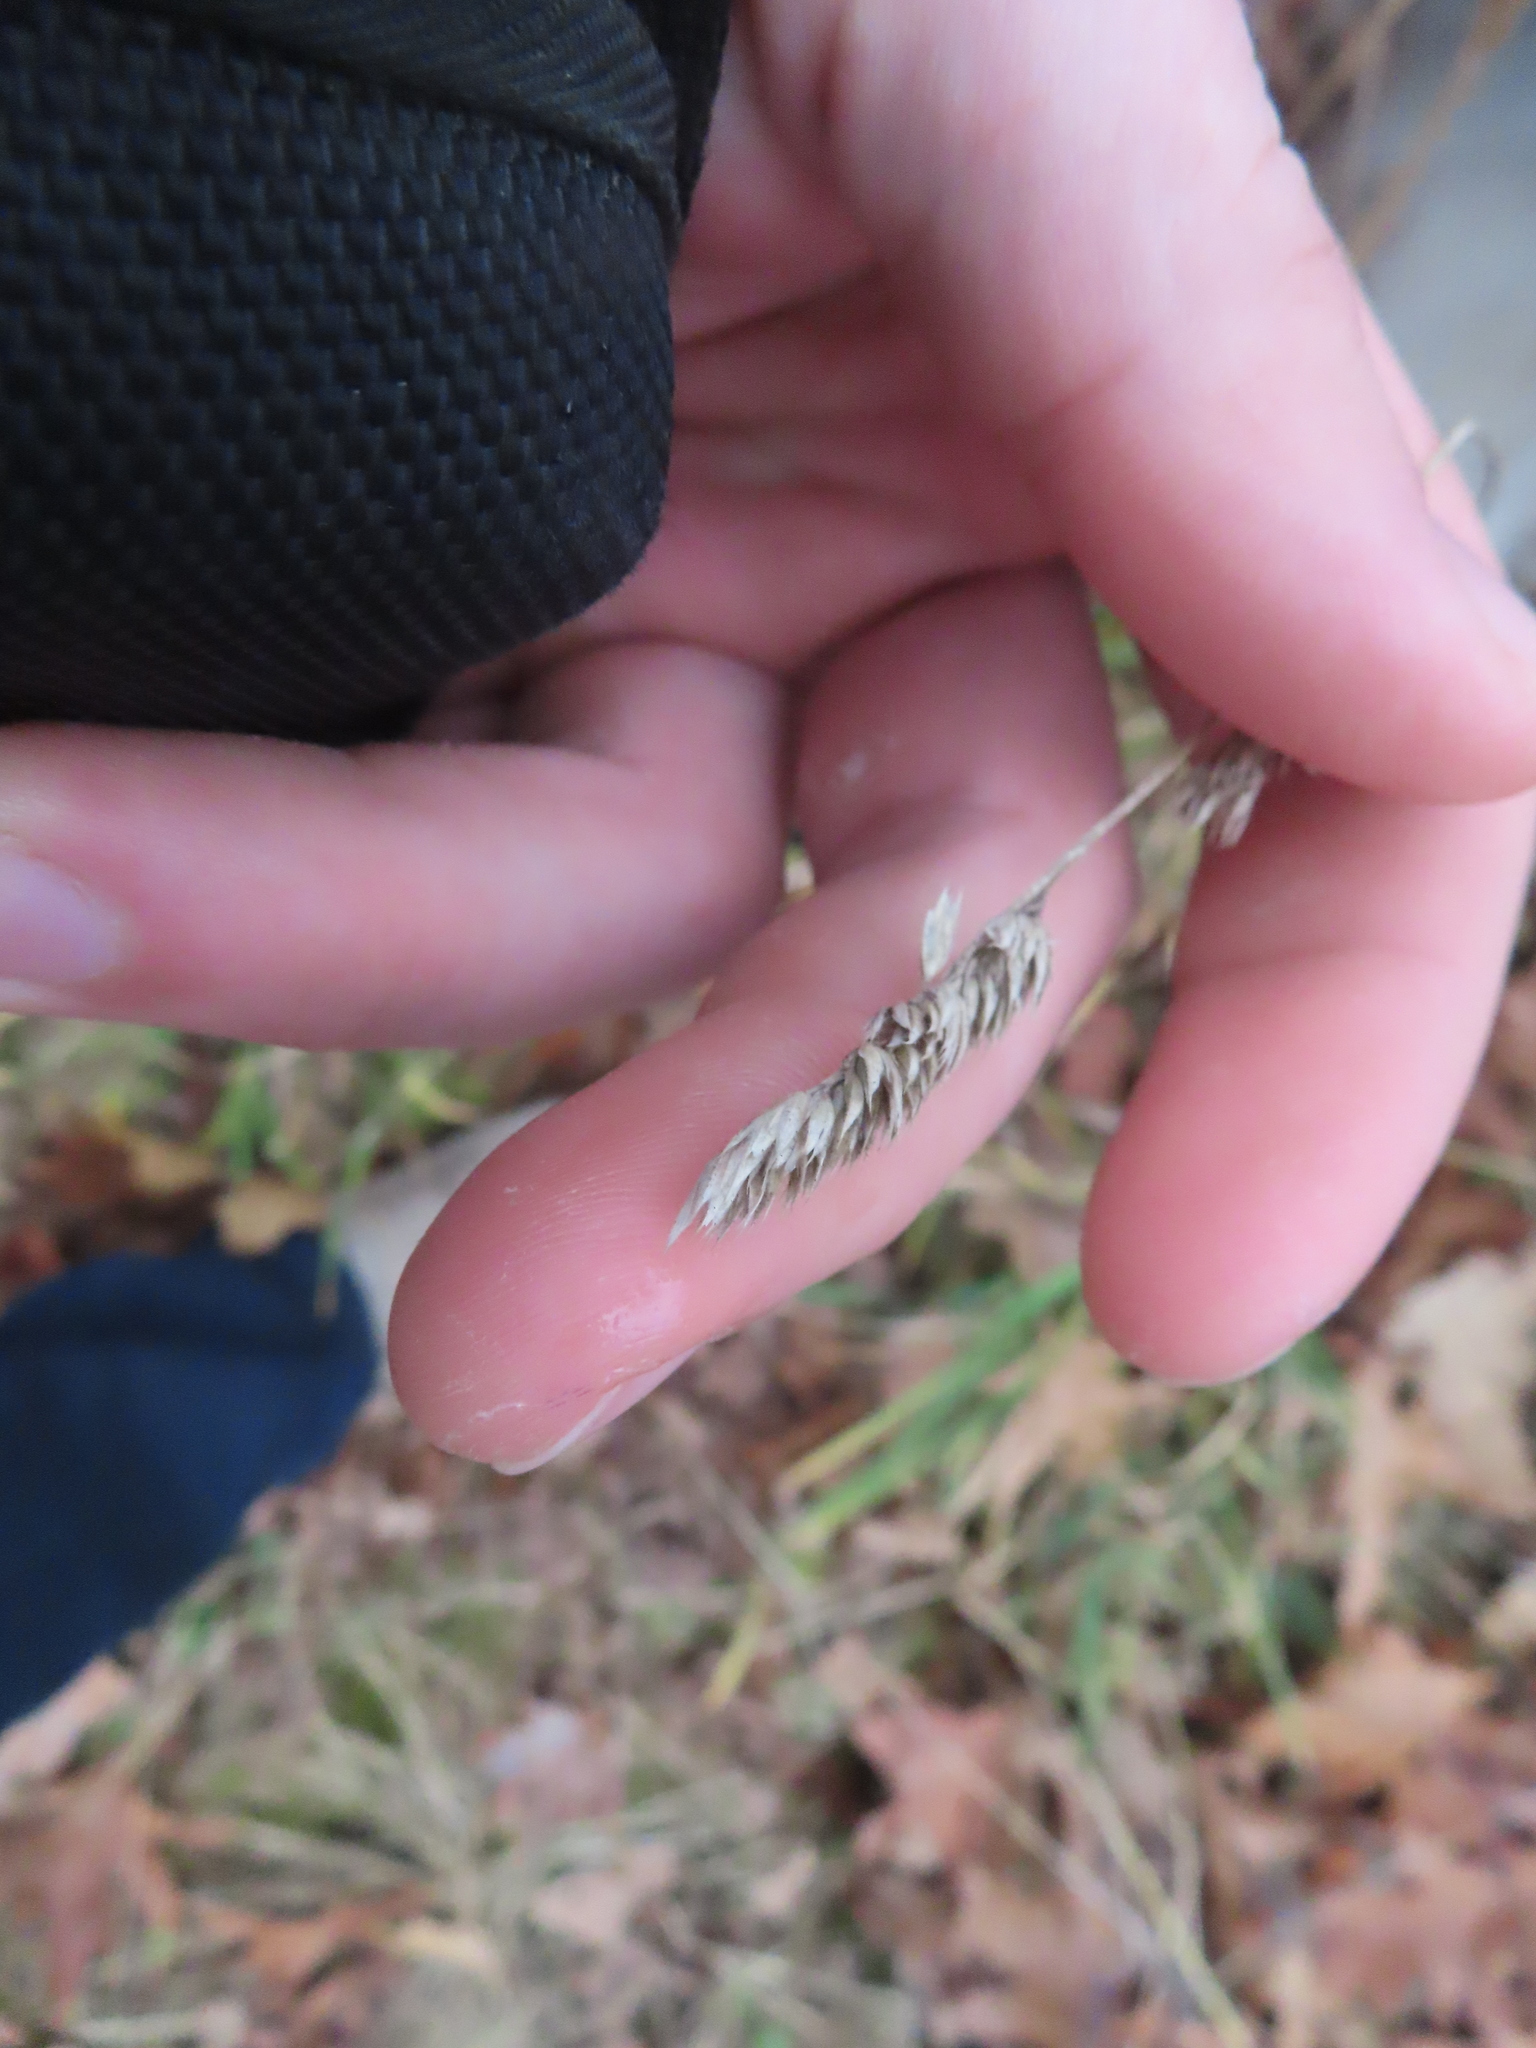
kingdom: Plantae
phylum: Tracheophyta
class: Liliopsida
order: Poales
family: Poaceae
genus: Dactylis
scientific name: Dactylis glomerata
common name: Orchardgrass
